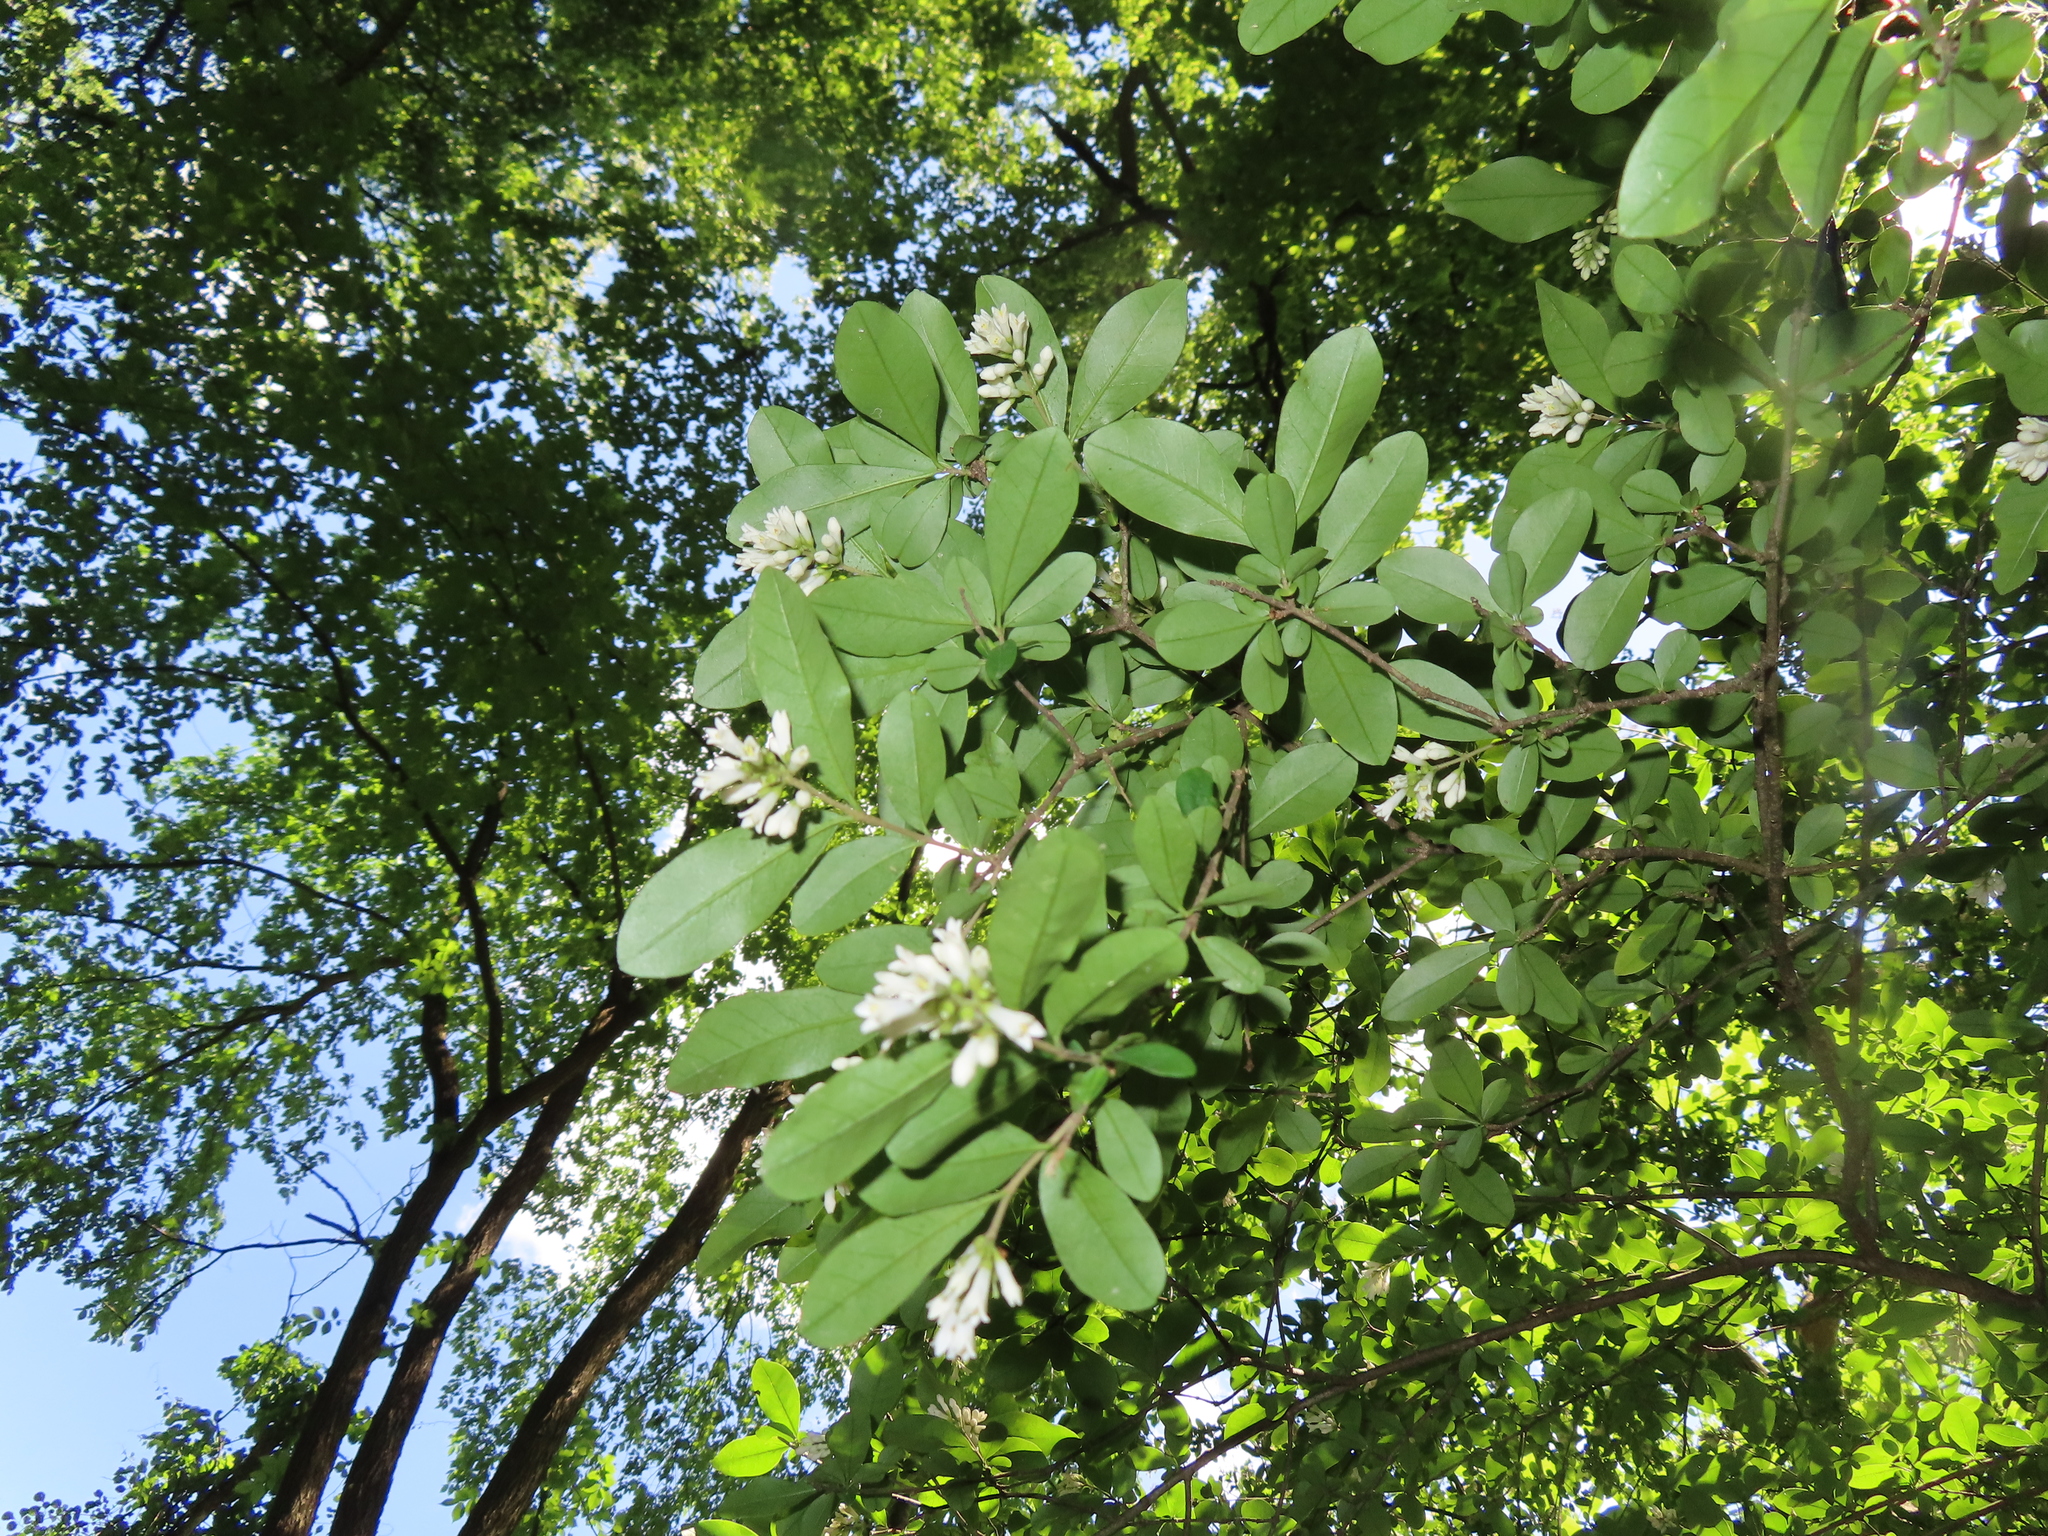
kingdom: Plantae
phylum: Tracheophyta
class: Magnoliopsida
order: Lamiales
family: Oleaceae
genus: Ligustrum
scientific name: Ligustrum obtusifolium
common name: Border privet
